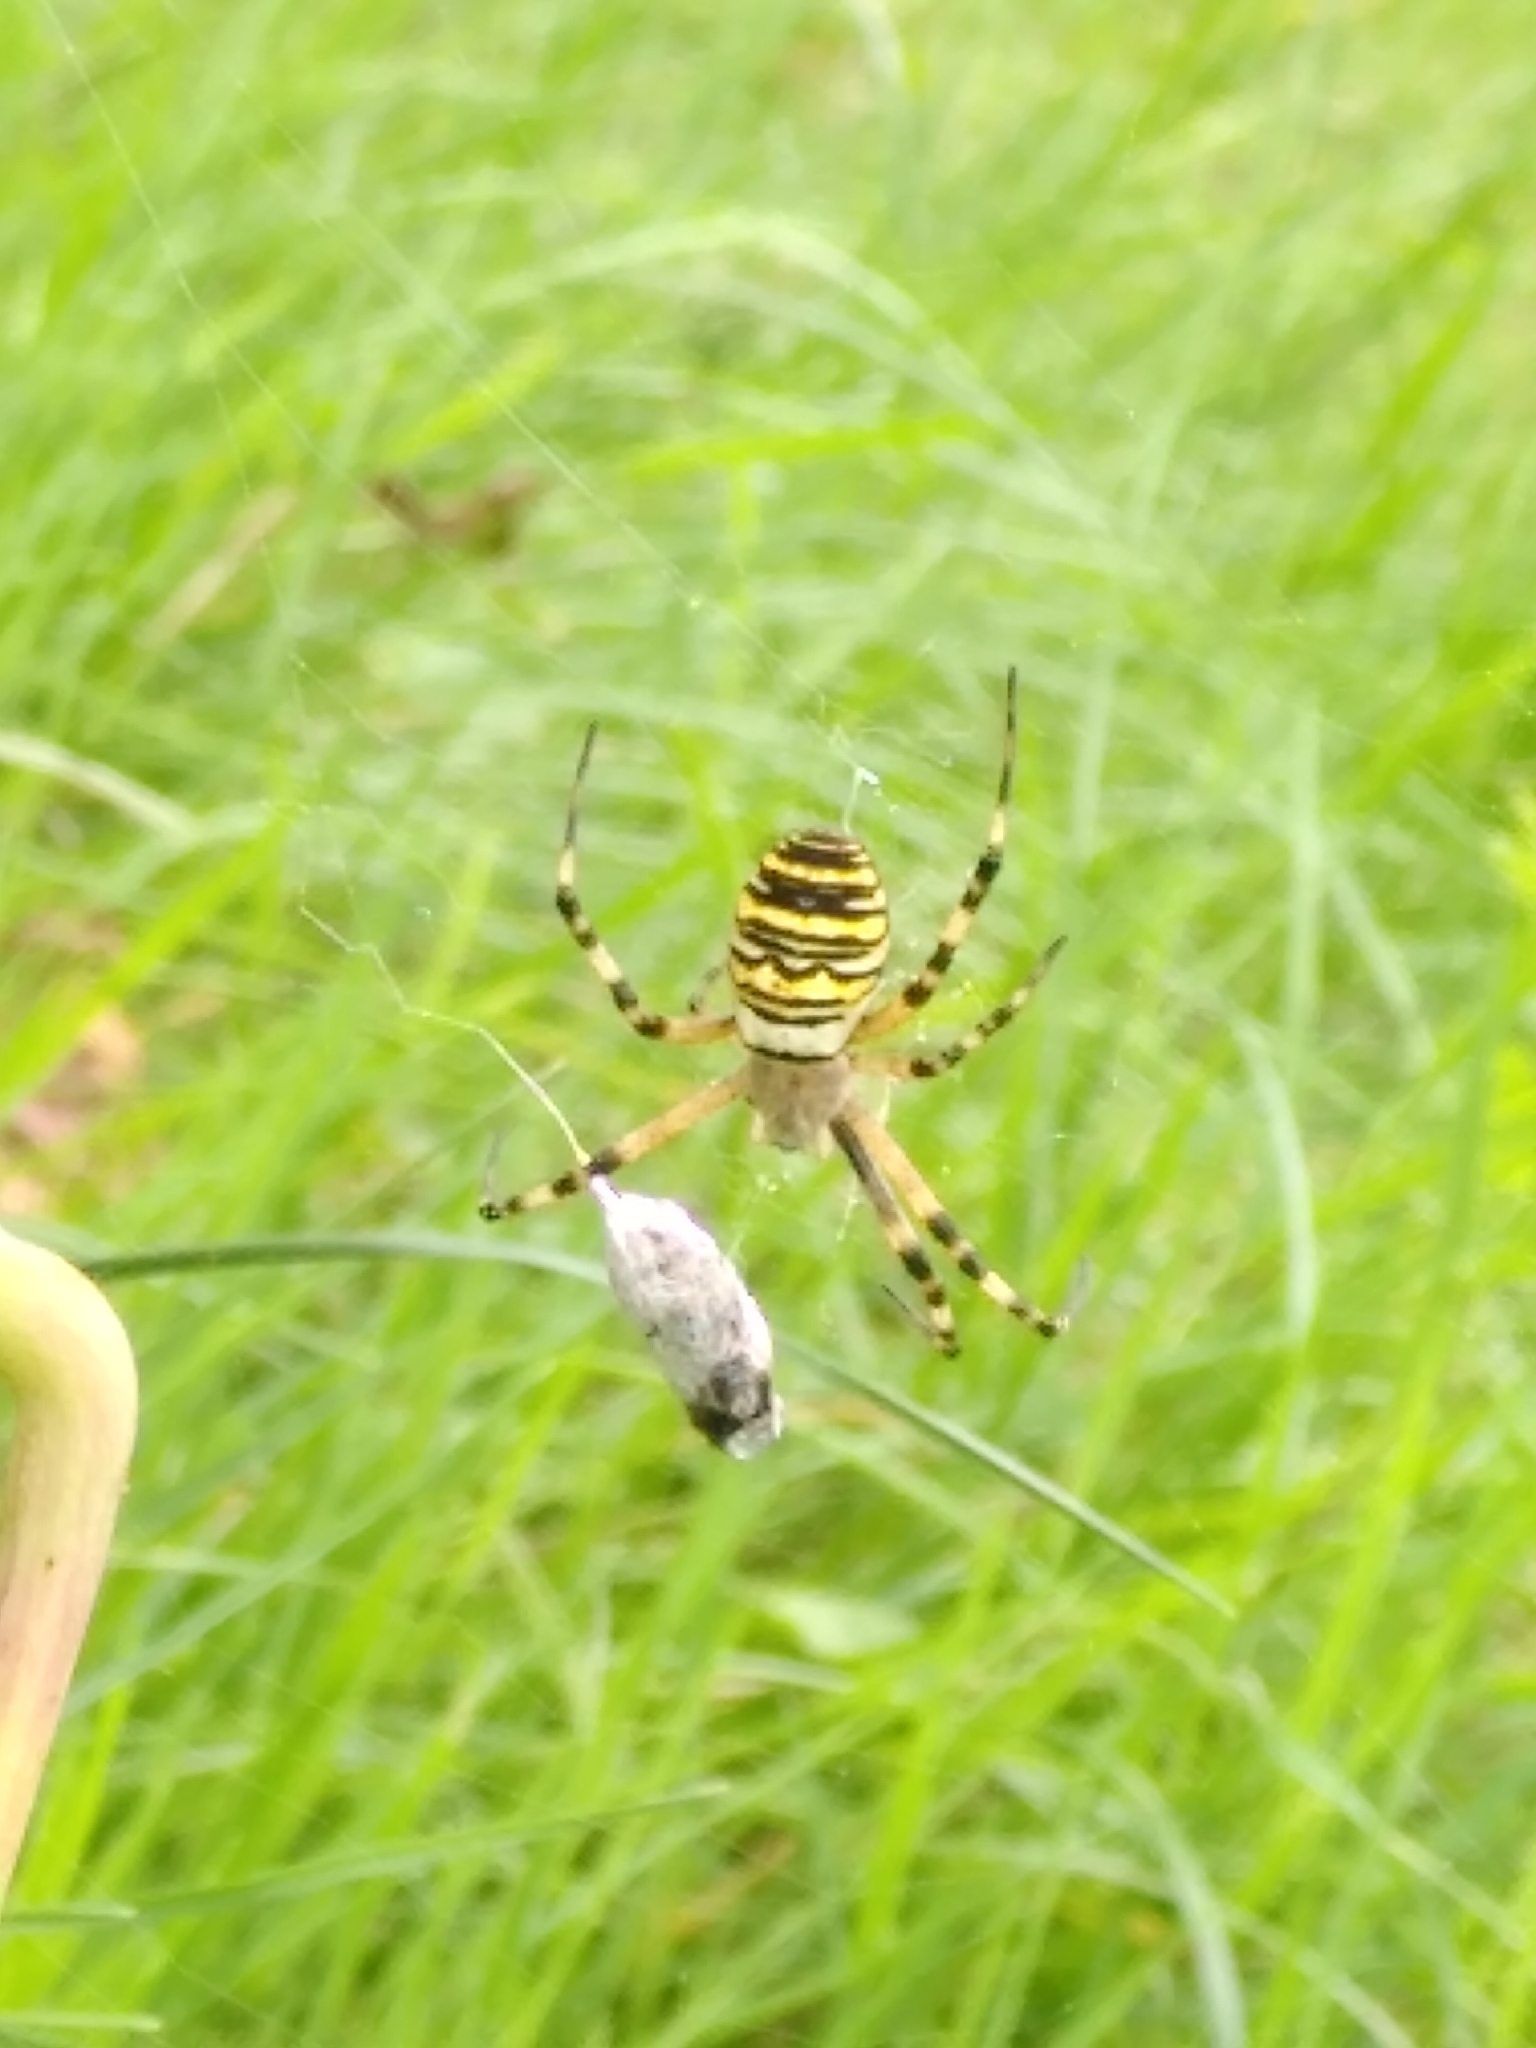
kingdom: Animalia
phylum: Arthropoda
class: Arachnida
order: Araneae
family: Araneidae
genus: Argiope
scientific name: Argiope bruennichi
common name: Wasp spider
